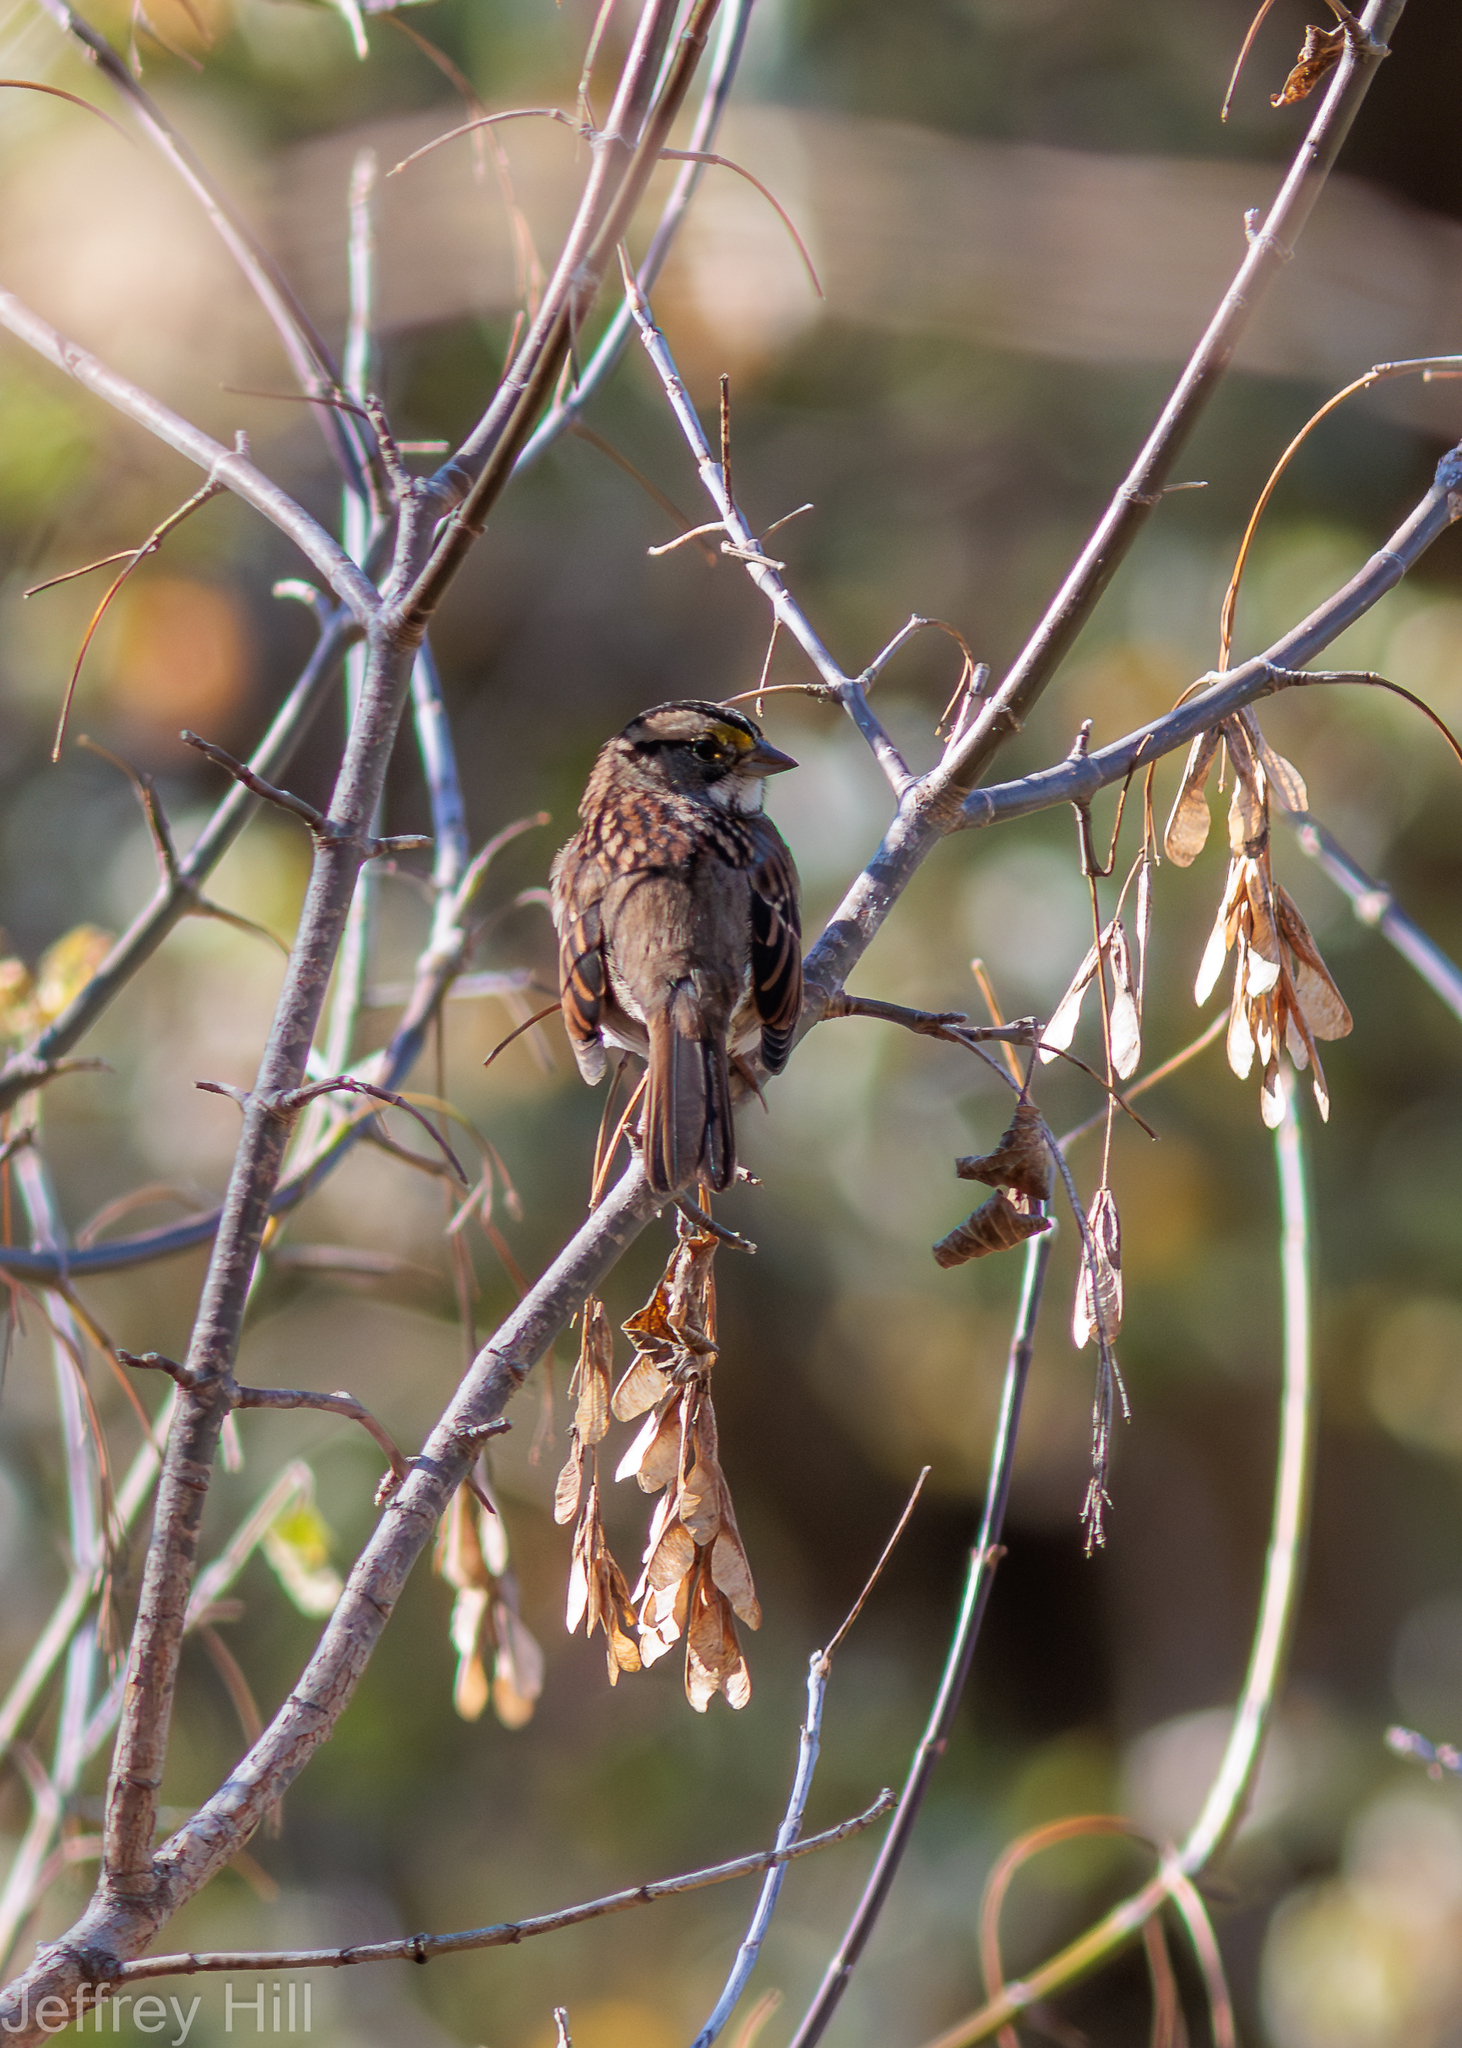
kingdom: Animalia
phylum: Chordata
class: Aves
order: Passeriformes
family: Passerellidae
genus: Zonotrichia
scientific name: Zonotrichia albicollis
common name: White-throated sparrow
